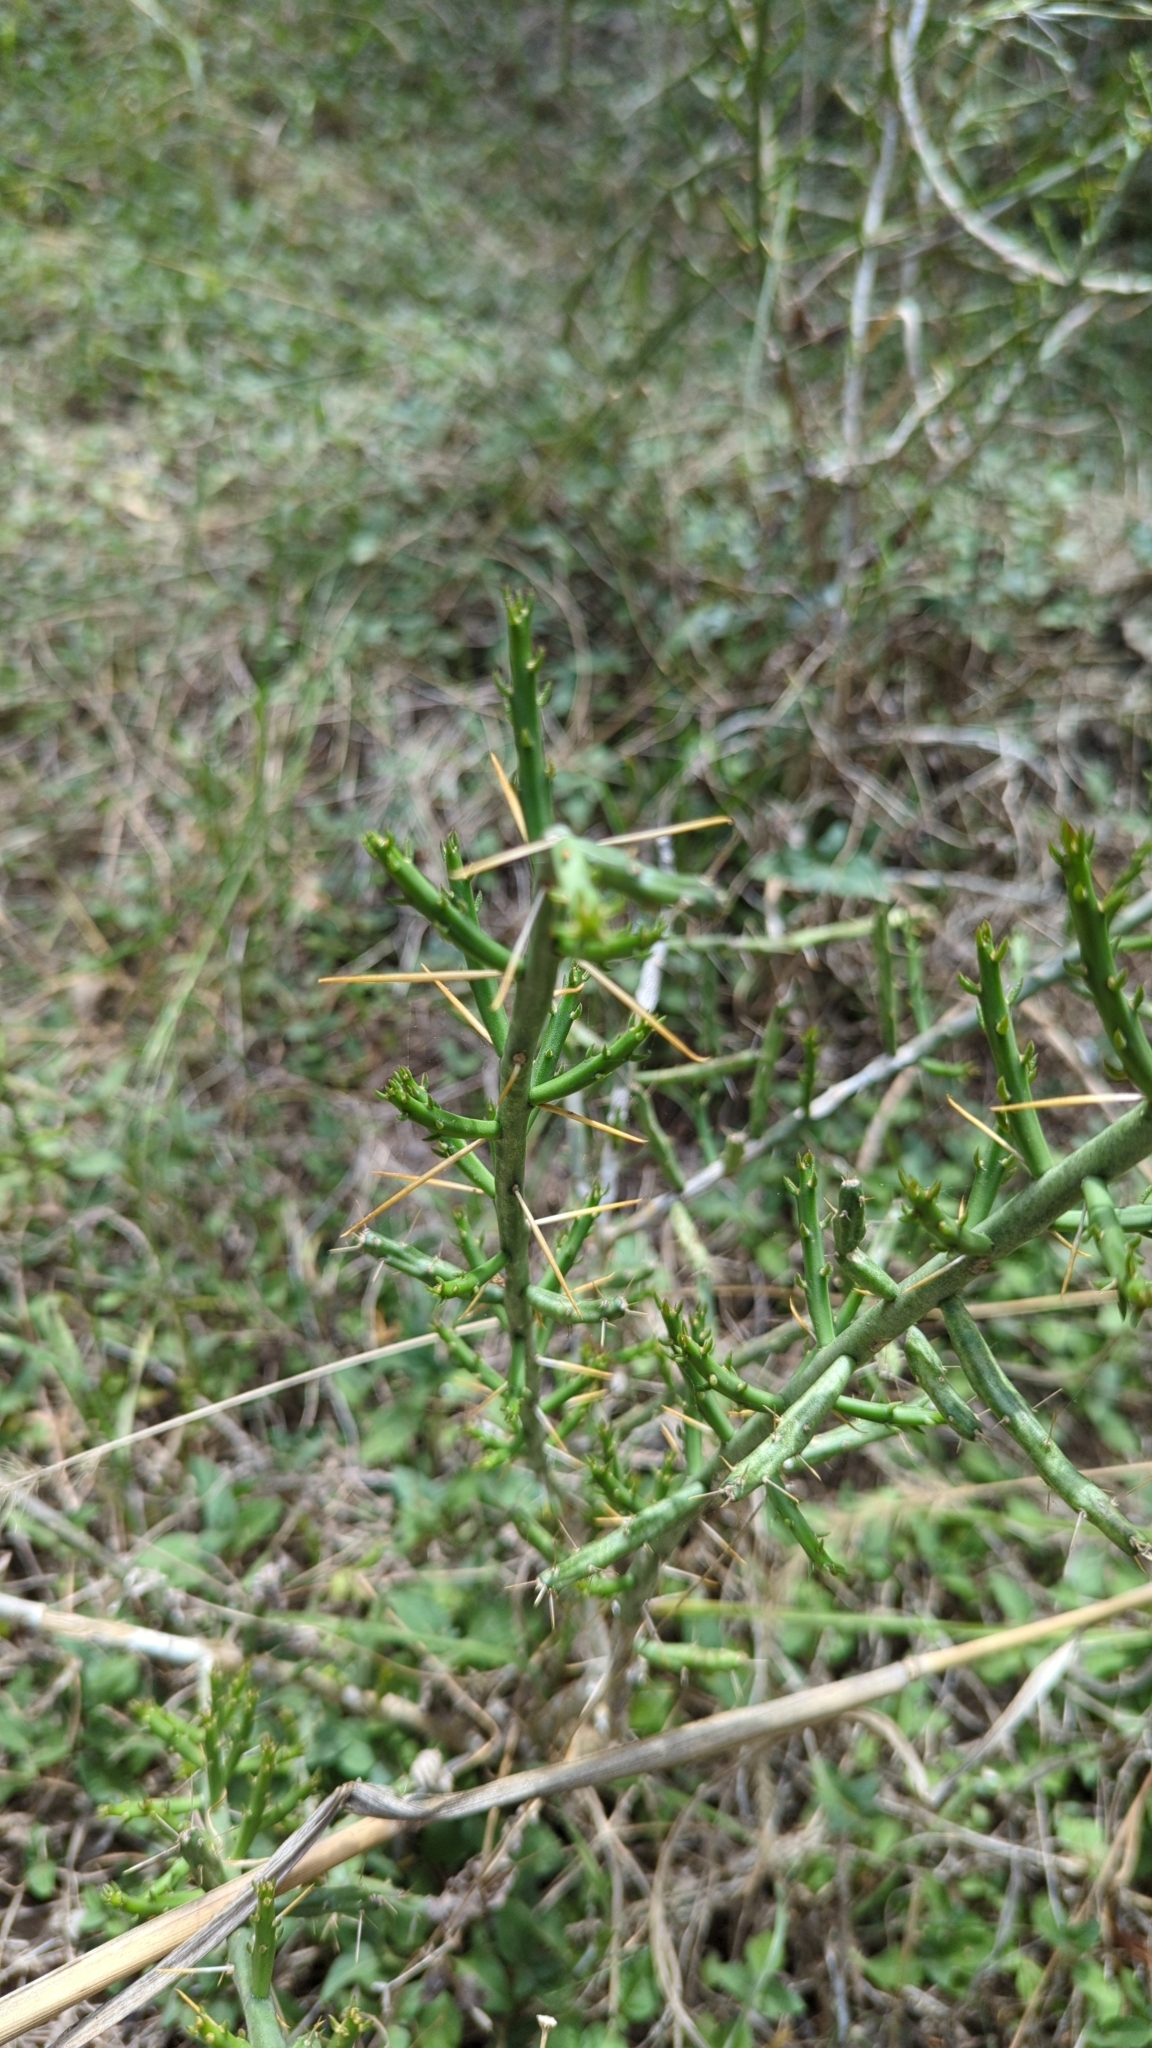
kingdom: Plantae
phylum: Tracheophyta
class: Magnoliopsida
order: Caryophyllales
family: Cactaceae
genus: Cylindropuntia
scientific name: Cylindropuntia leptocaulis
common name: Christmas cactus
